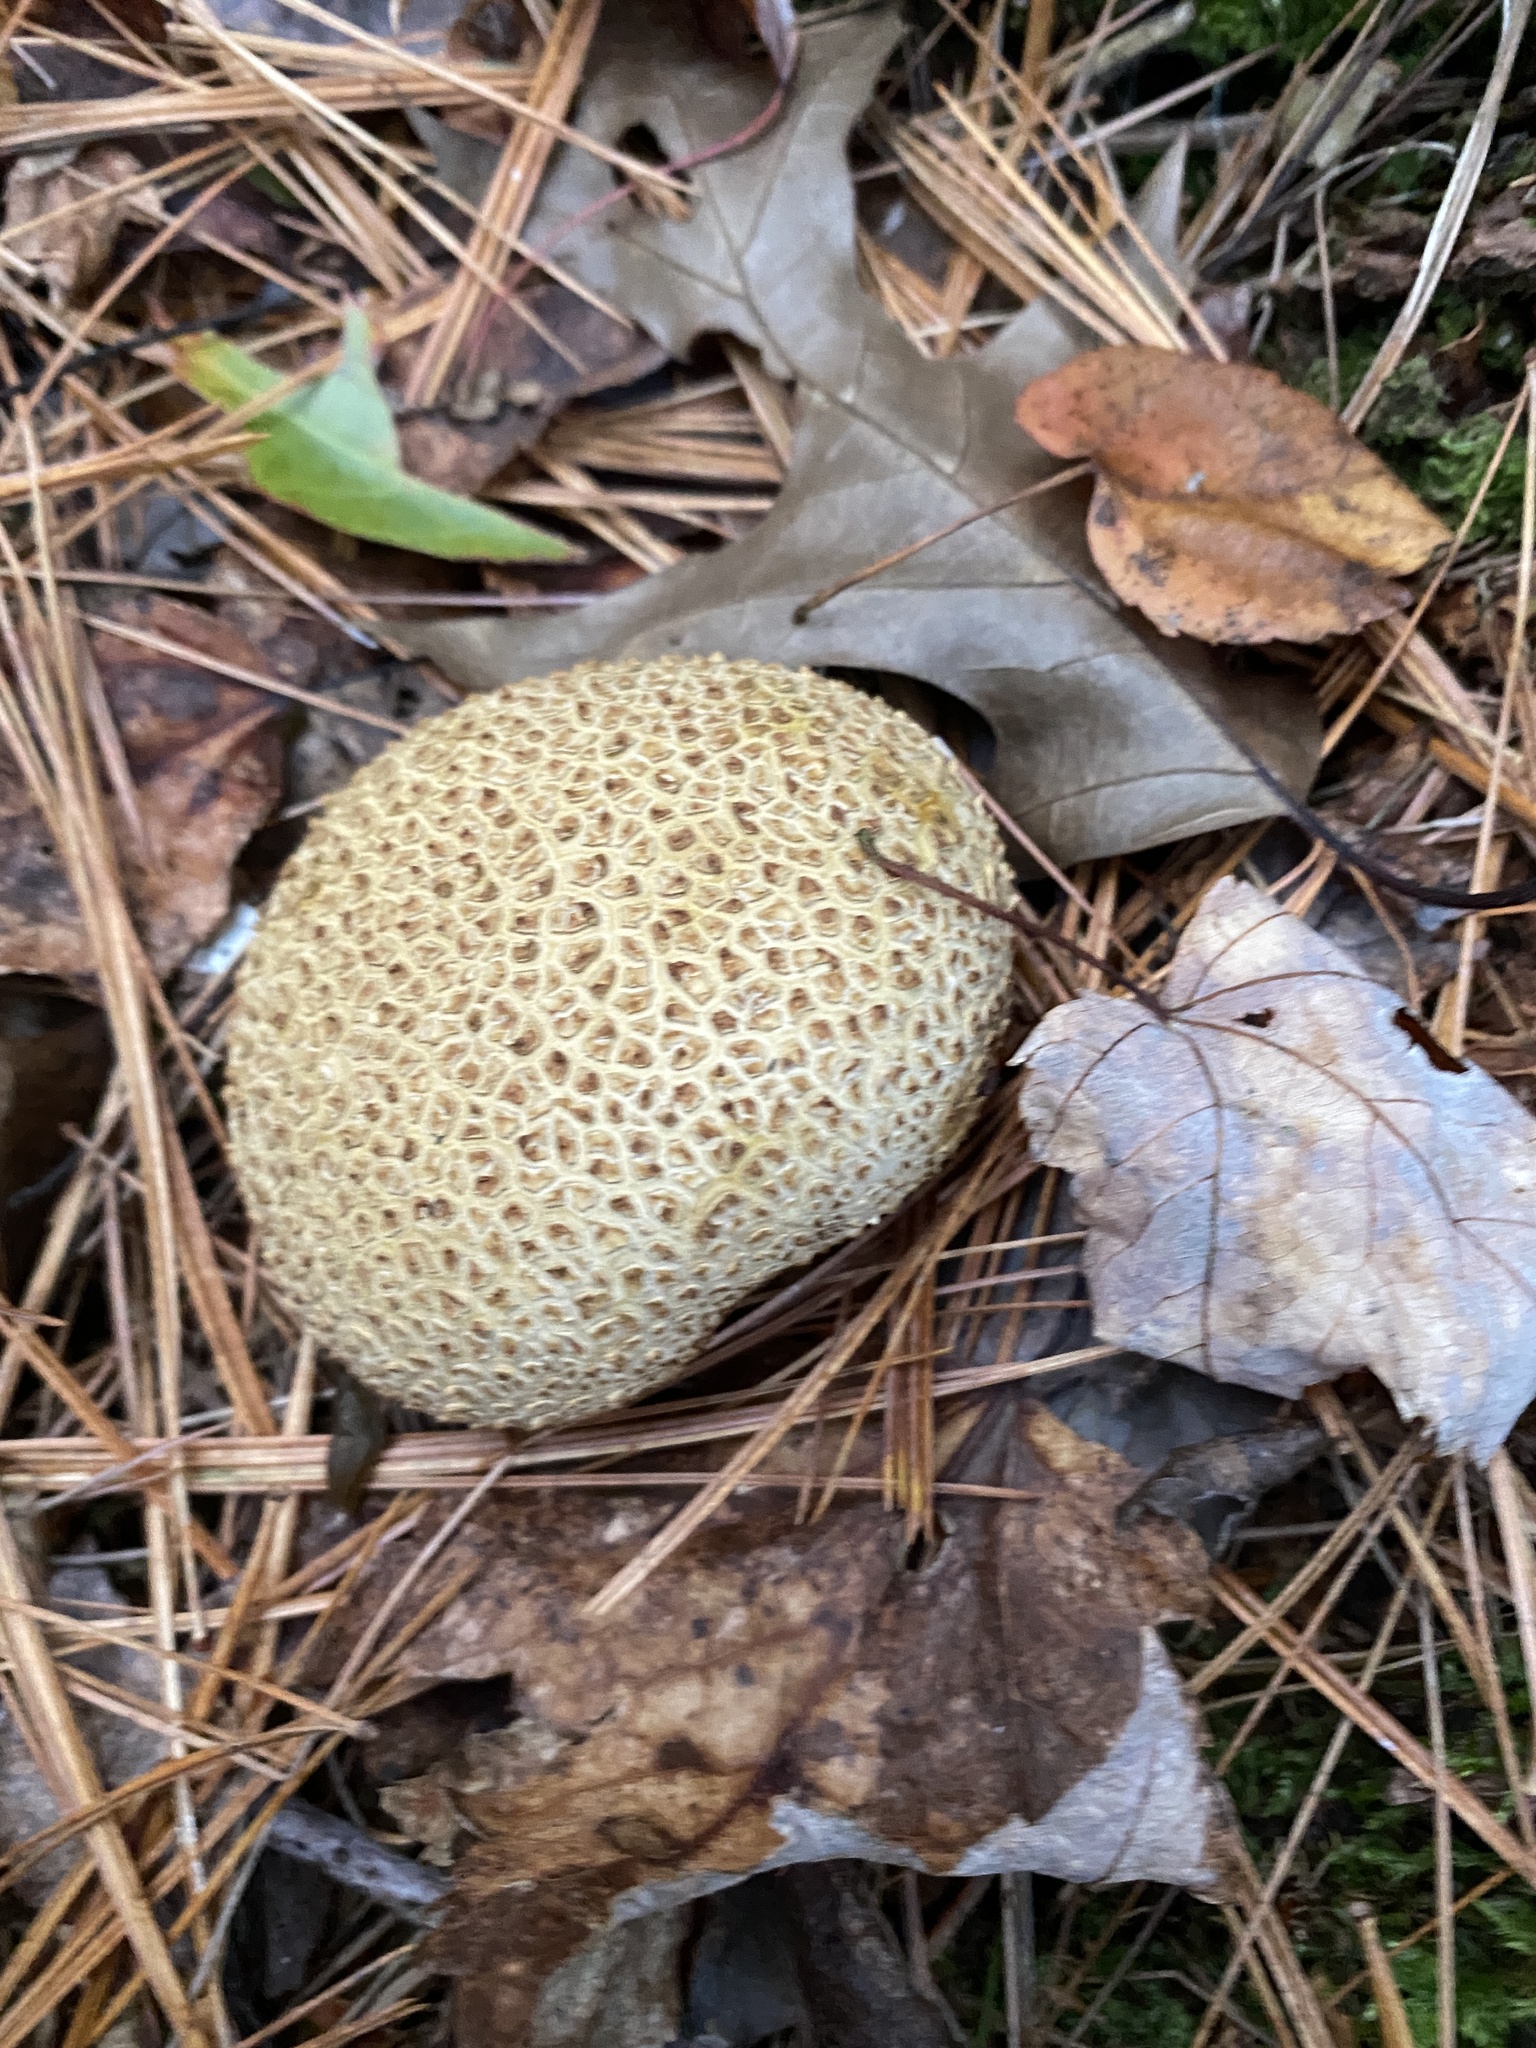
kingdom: Fungi
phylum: Basidiomycota
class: Agaricomycetes
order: Boletales
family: Sclerodermataceae
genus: Scleroderma
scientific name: Scleroderma citrinum
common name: Common earthball
